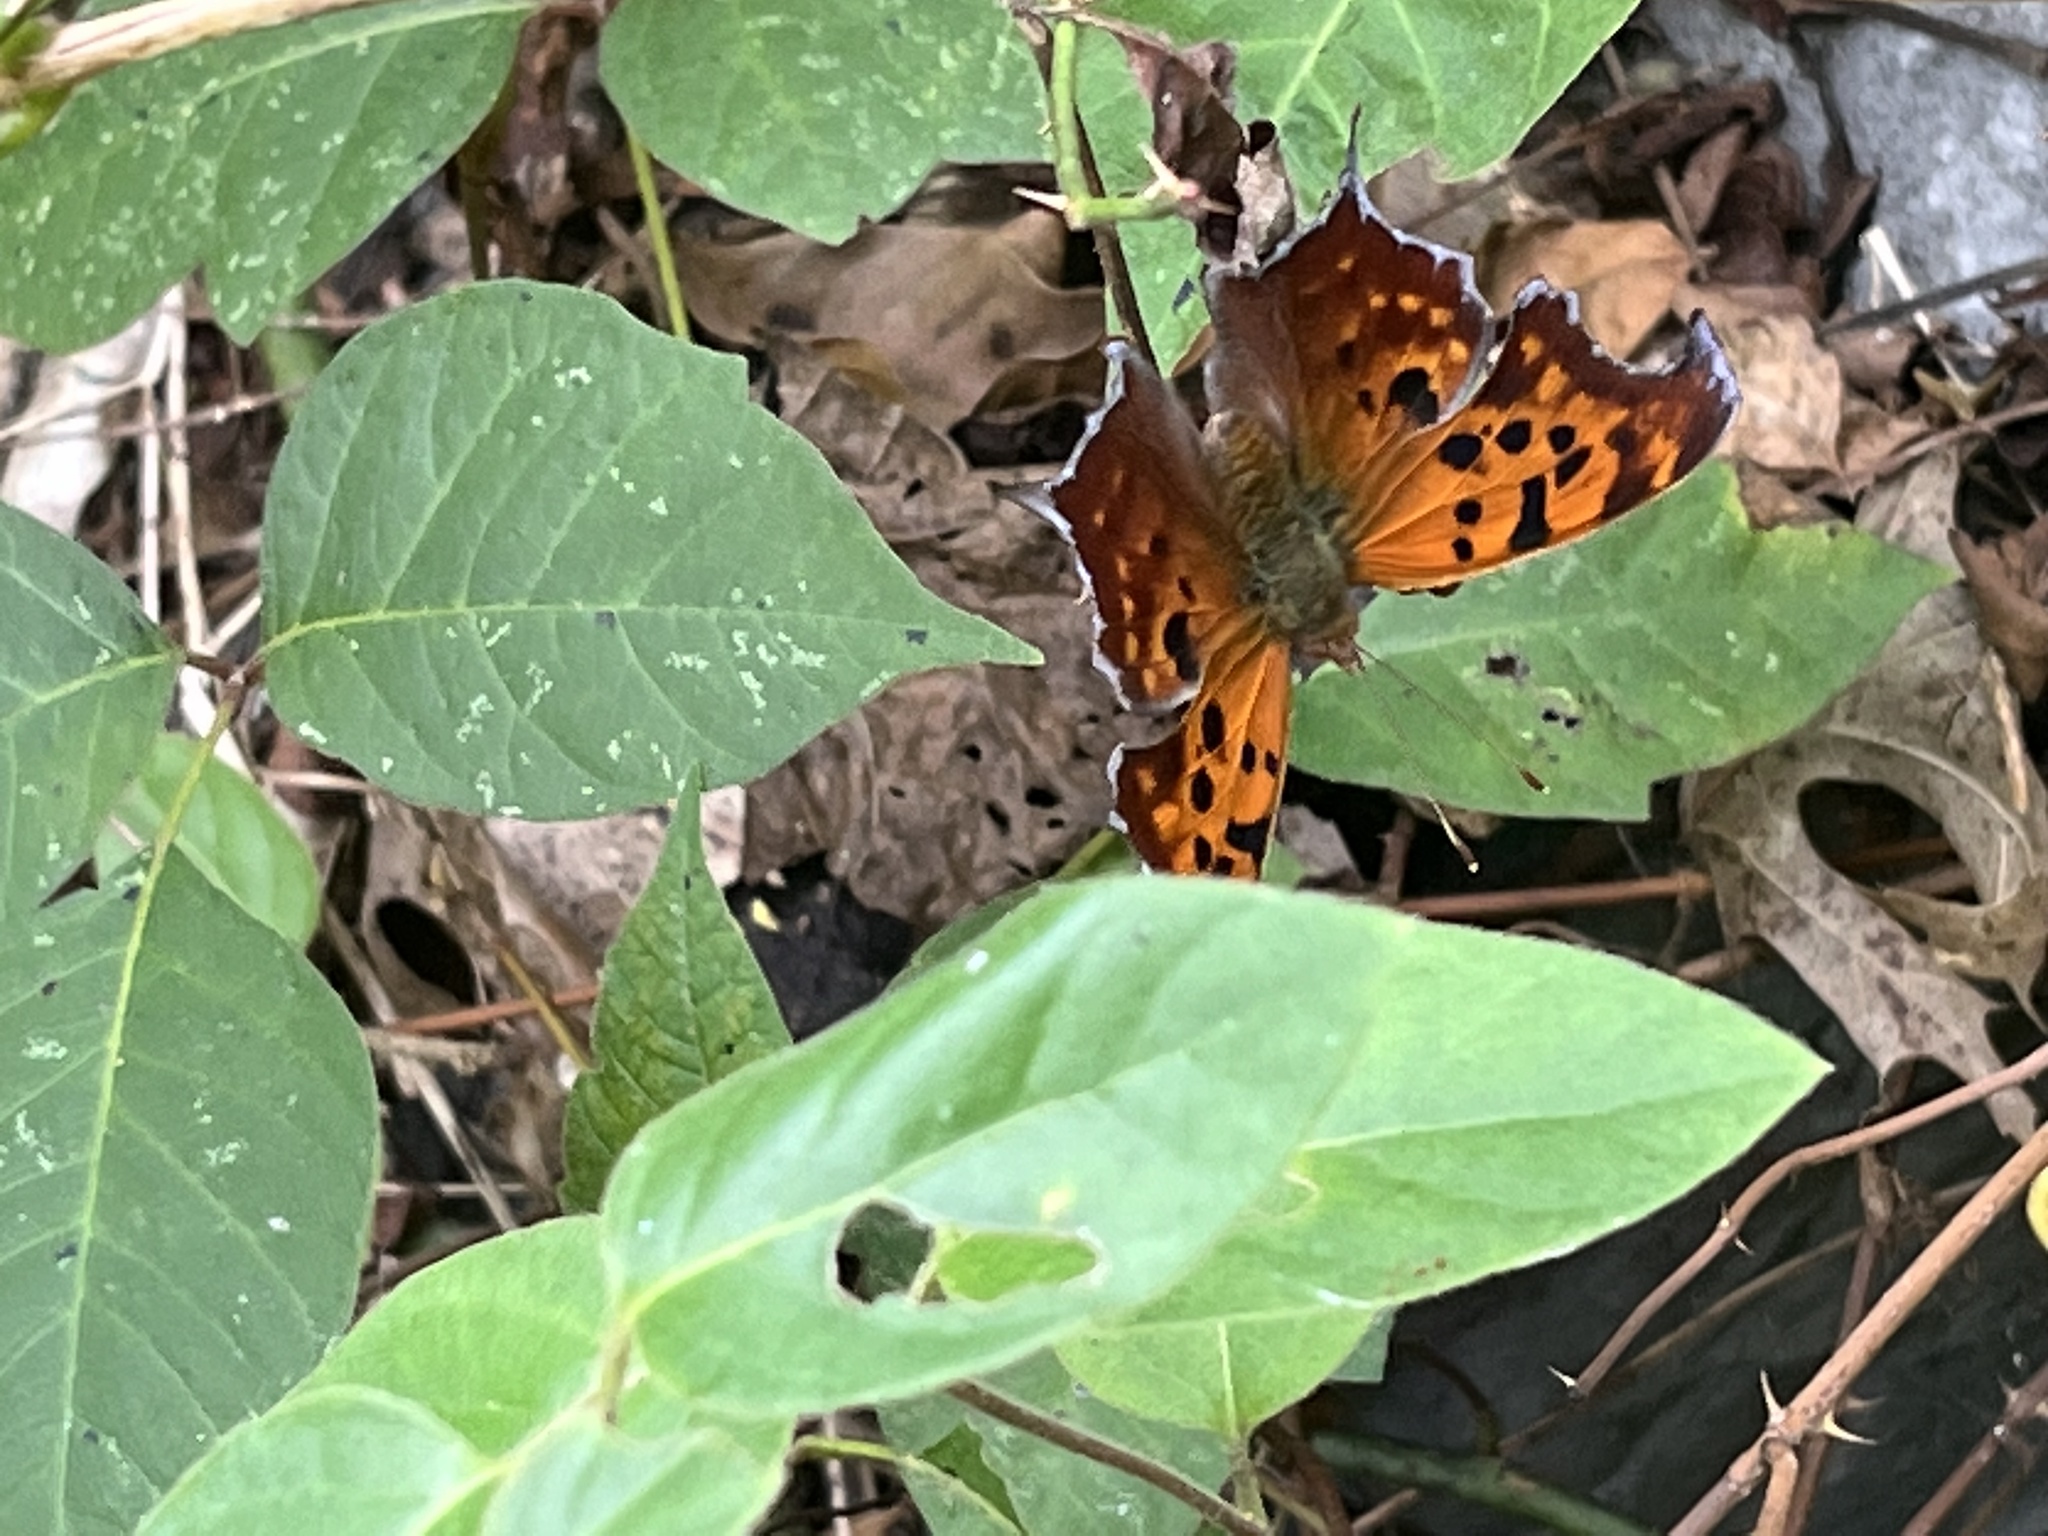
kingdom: Animalia
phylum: Arthropoda
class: Insecta
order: Lepidoptera
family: Nymphalidae
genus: Polygonia
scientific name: Polygonia interrogationis
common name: Question mark
